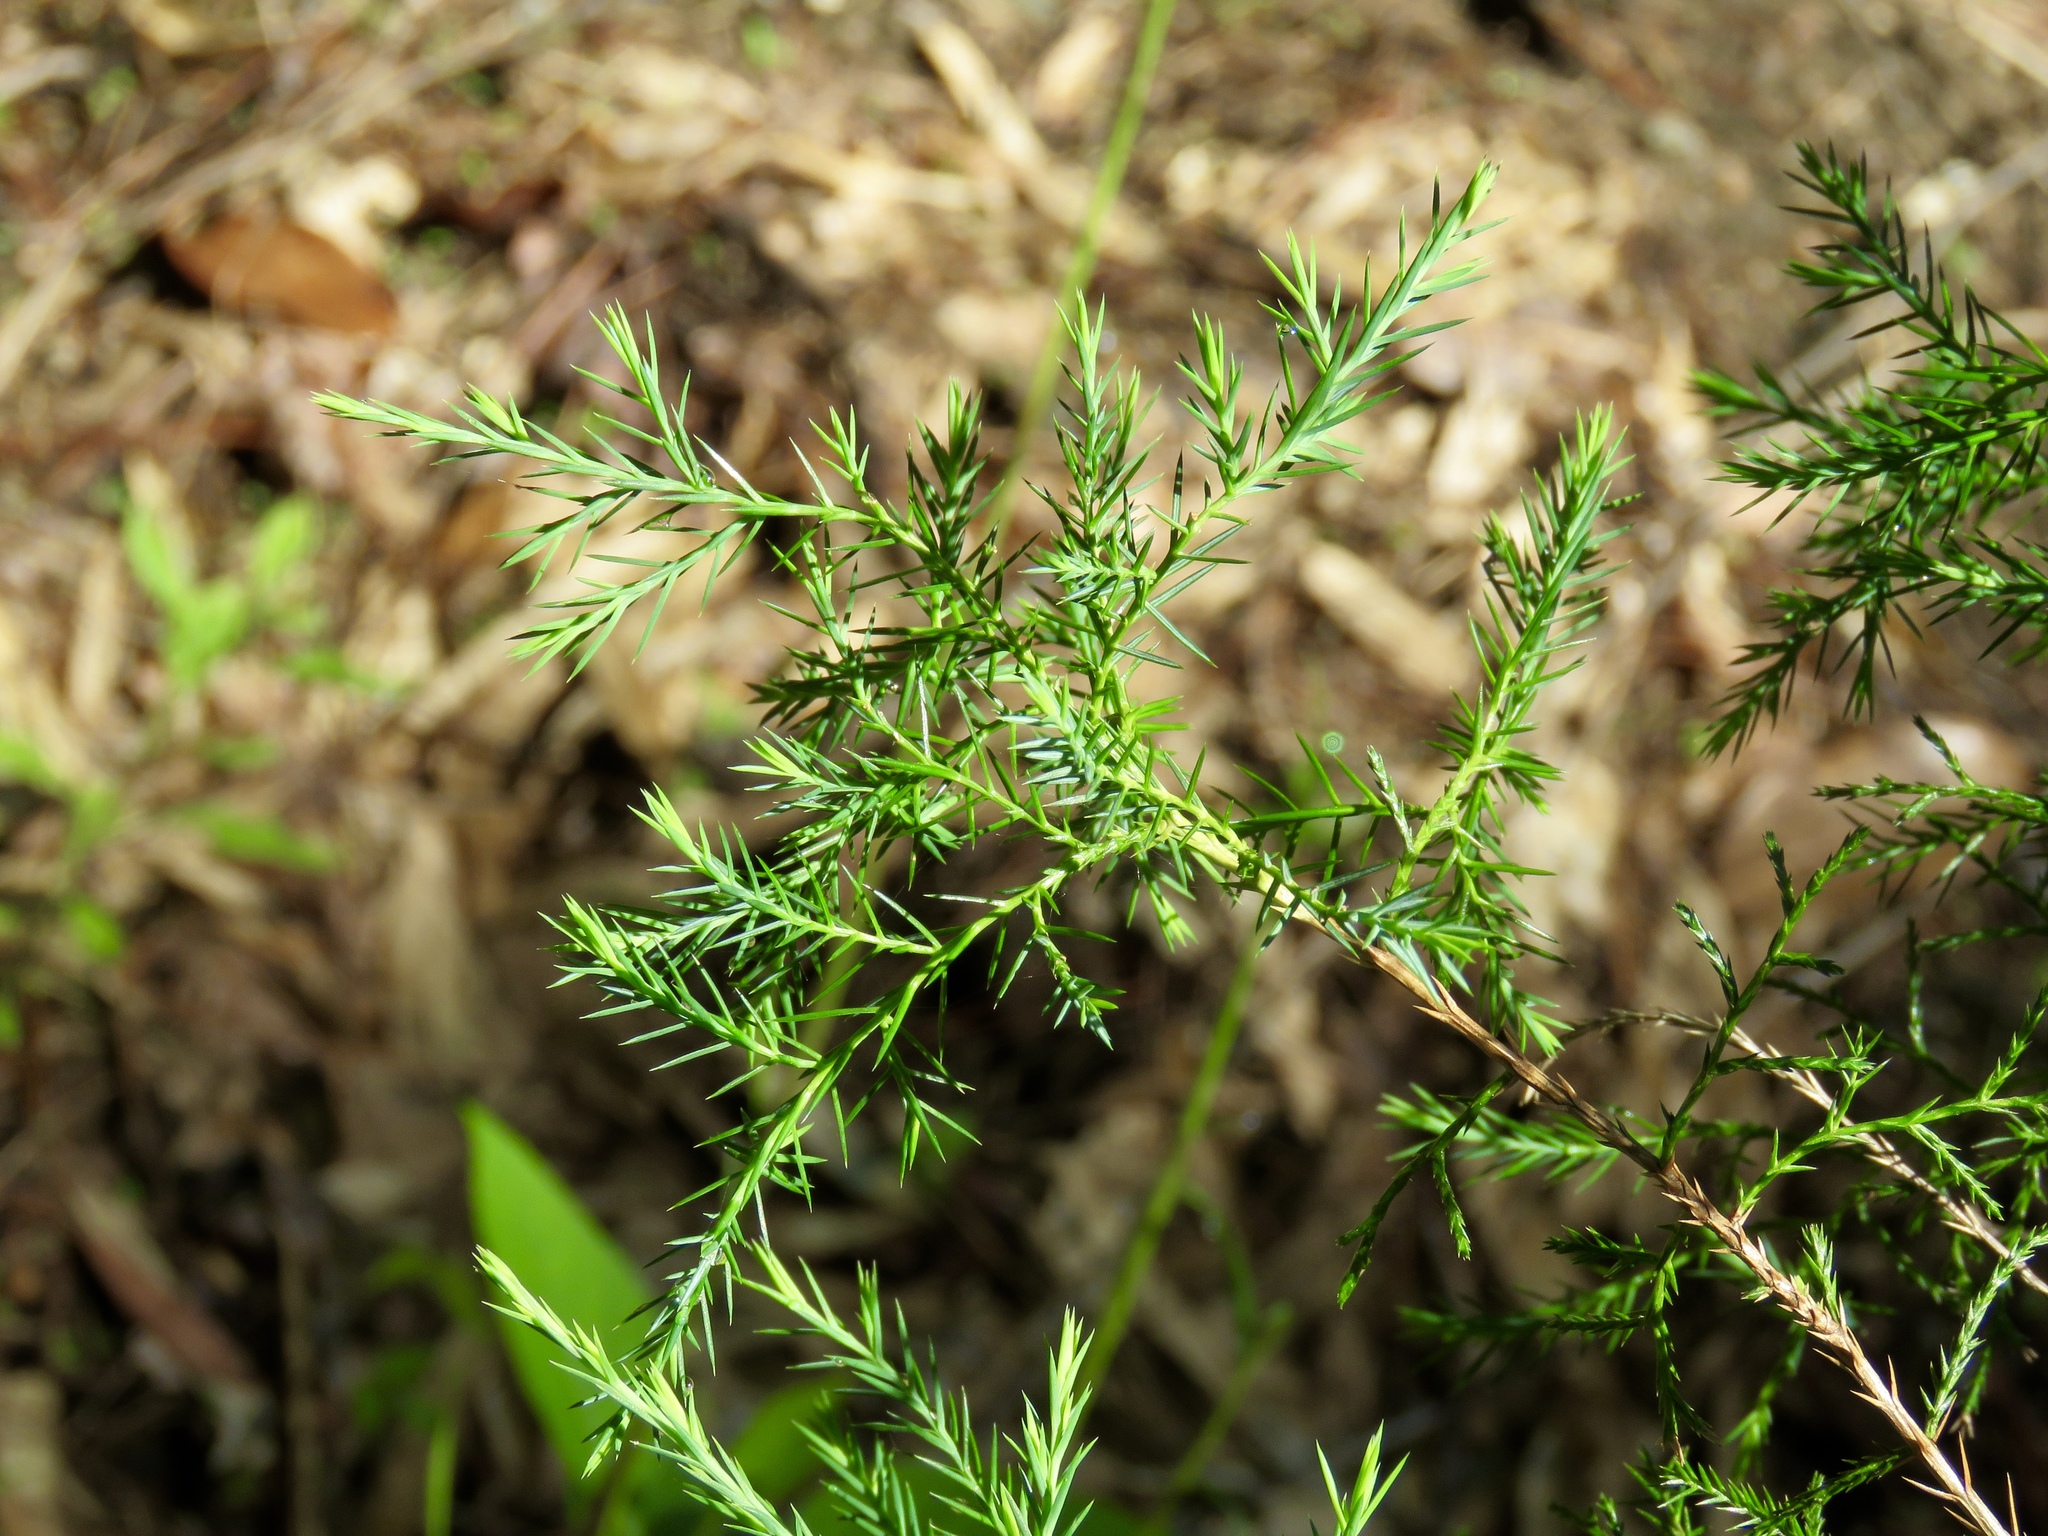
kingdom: Plantae
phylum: Tracheophyta
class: Pinopsida
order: Pinales
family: Cupressaceae
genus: Juniperus
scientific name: Juniperus virginiana
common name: Red juniper
